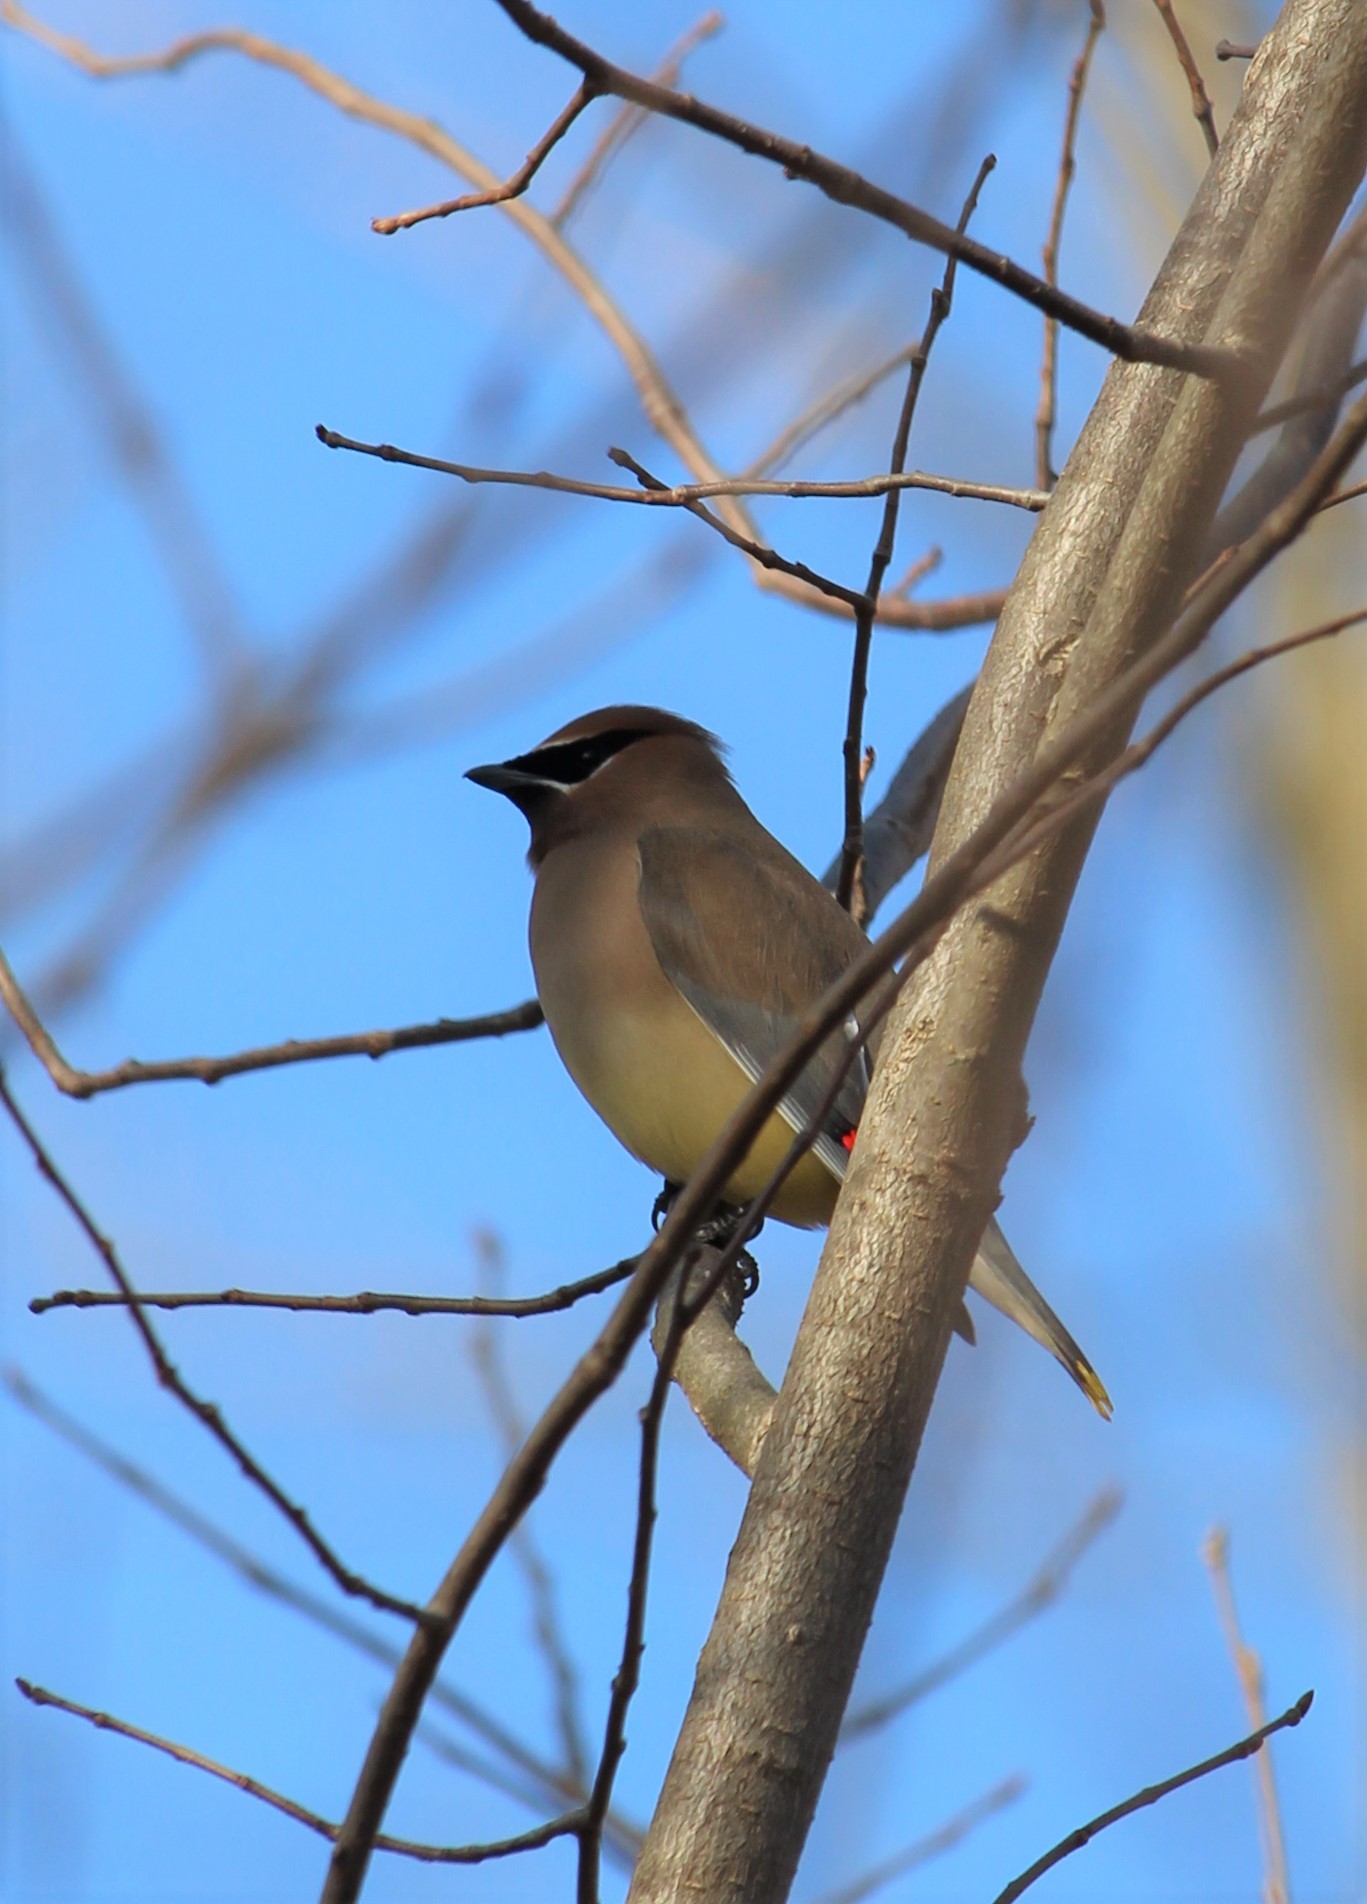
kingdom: Animalia
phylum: Chordata
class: Aves
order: Passeriformes
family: Bombycillidae
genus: Bombycilla
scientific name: Bombycilla cedrorum
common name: Cedar waxwing
